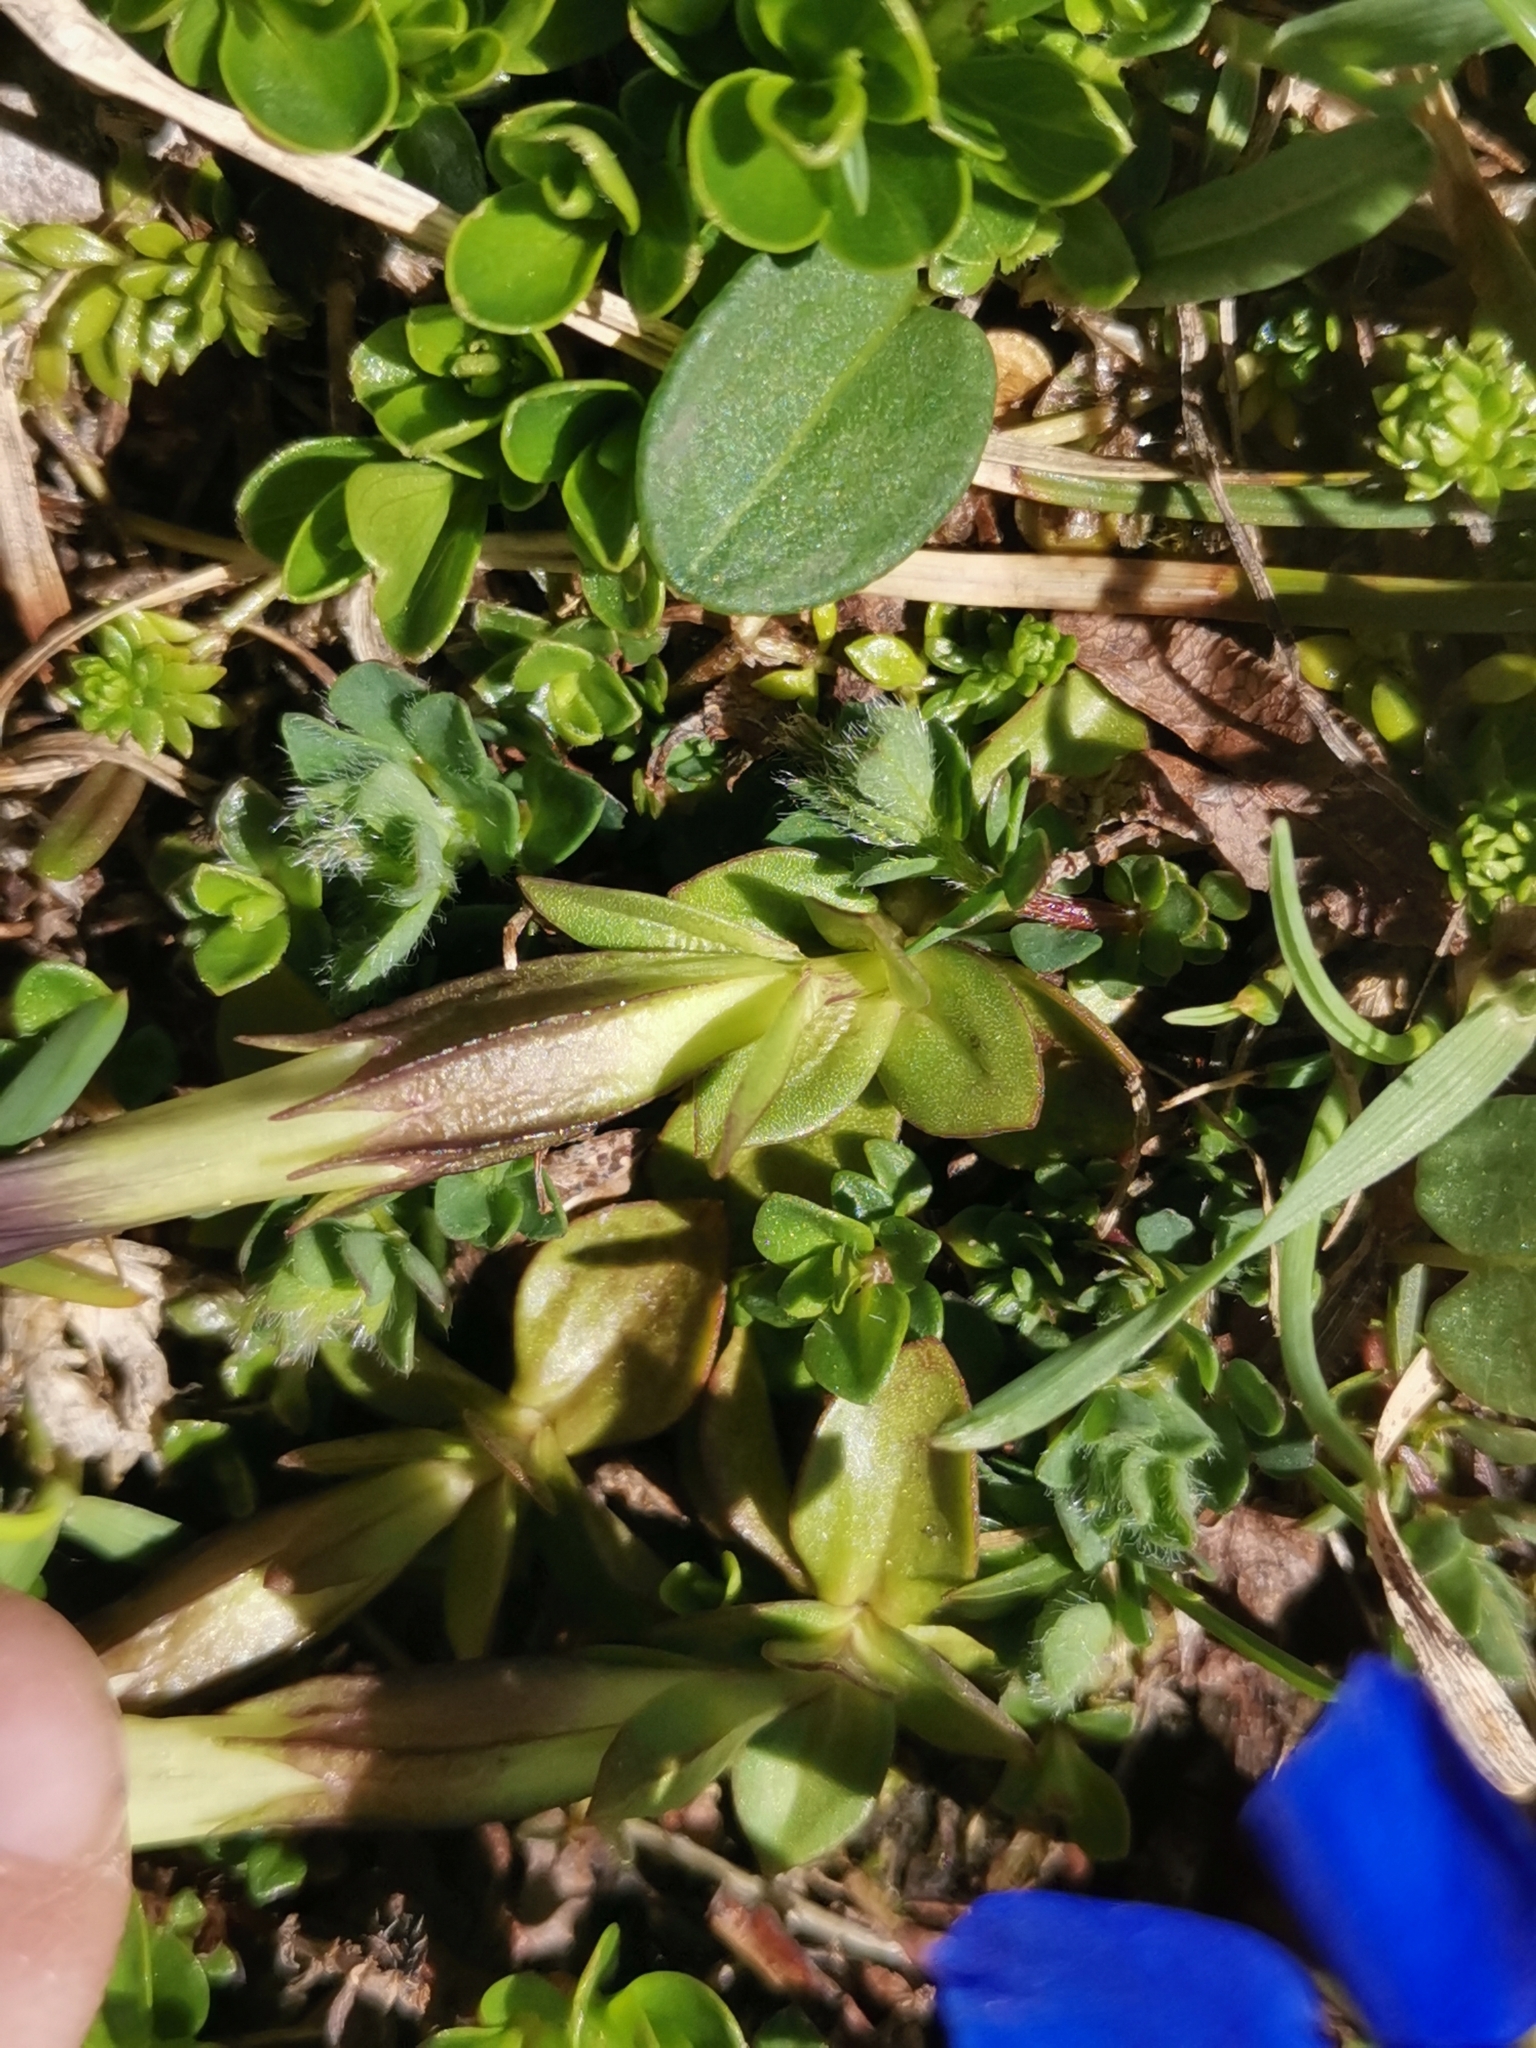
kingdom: Plantae
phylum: Tracheophyta
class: Magnoliopsida
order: Gentianales
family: Gentianaceae
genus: Gentiana
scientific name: Gentiana verna
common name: Spring gentian
